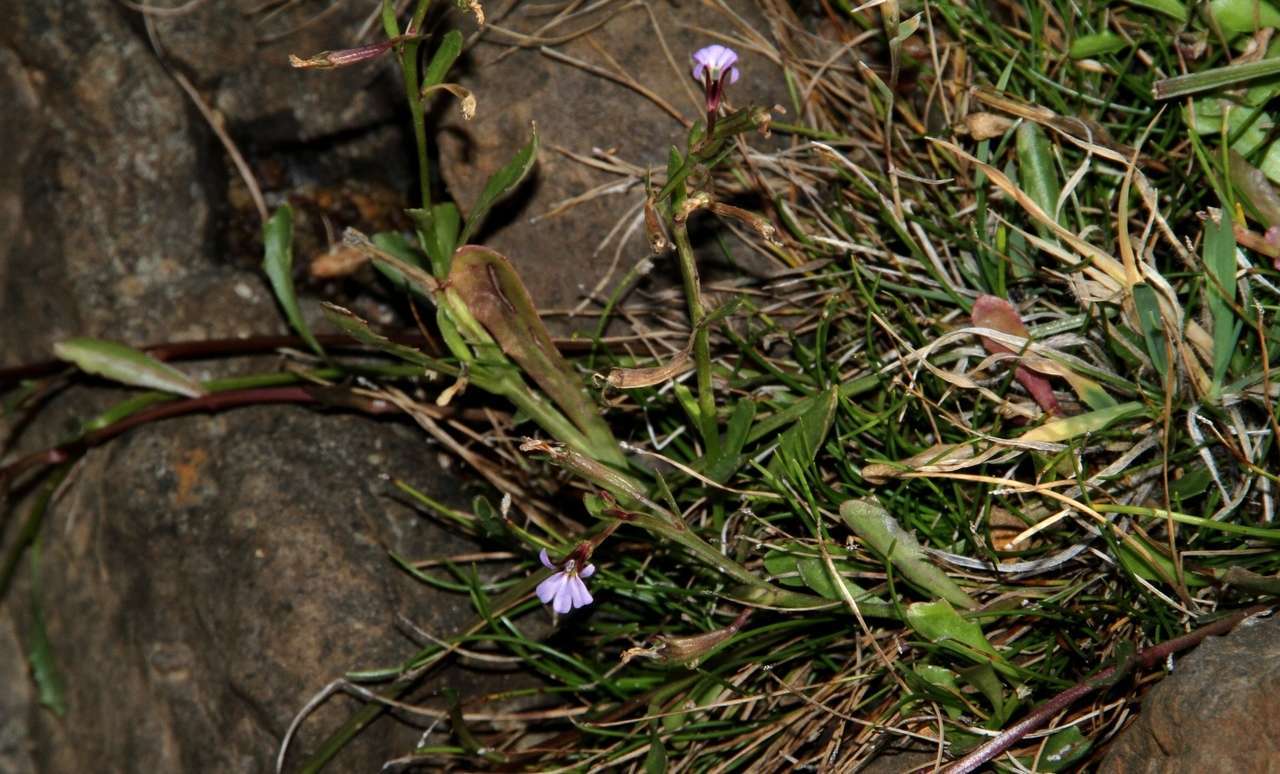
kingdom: Plantae
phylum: Tracheophyta
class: Magnoliopsida
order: Asterales
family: Campanulaceae
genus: Lobelia
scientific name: Lobelia anceps
